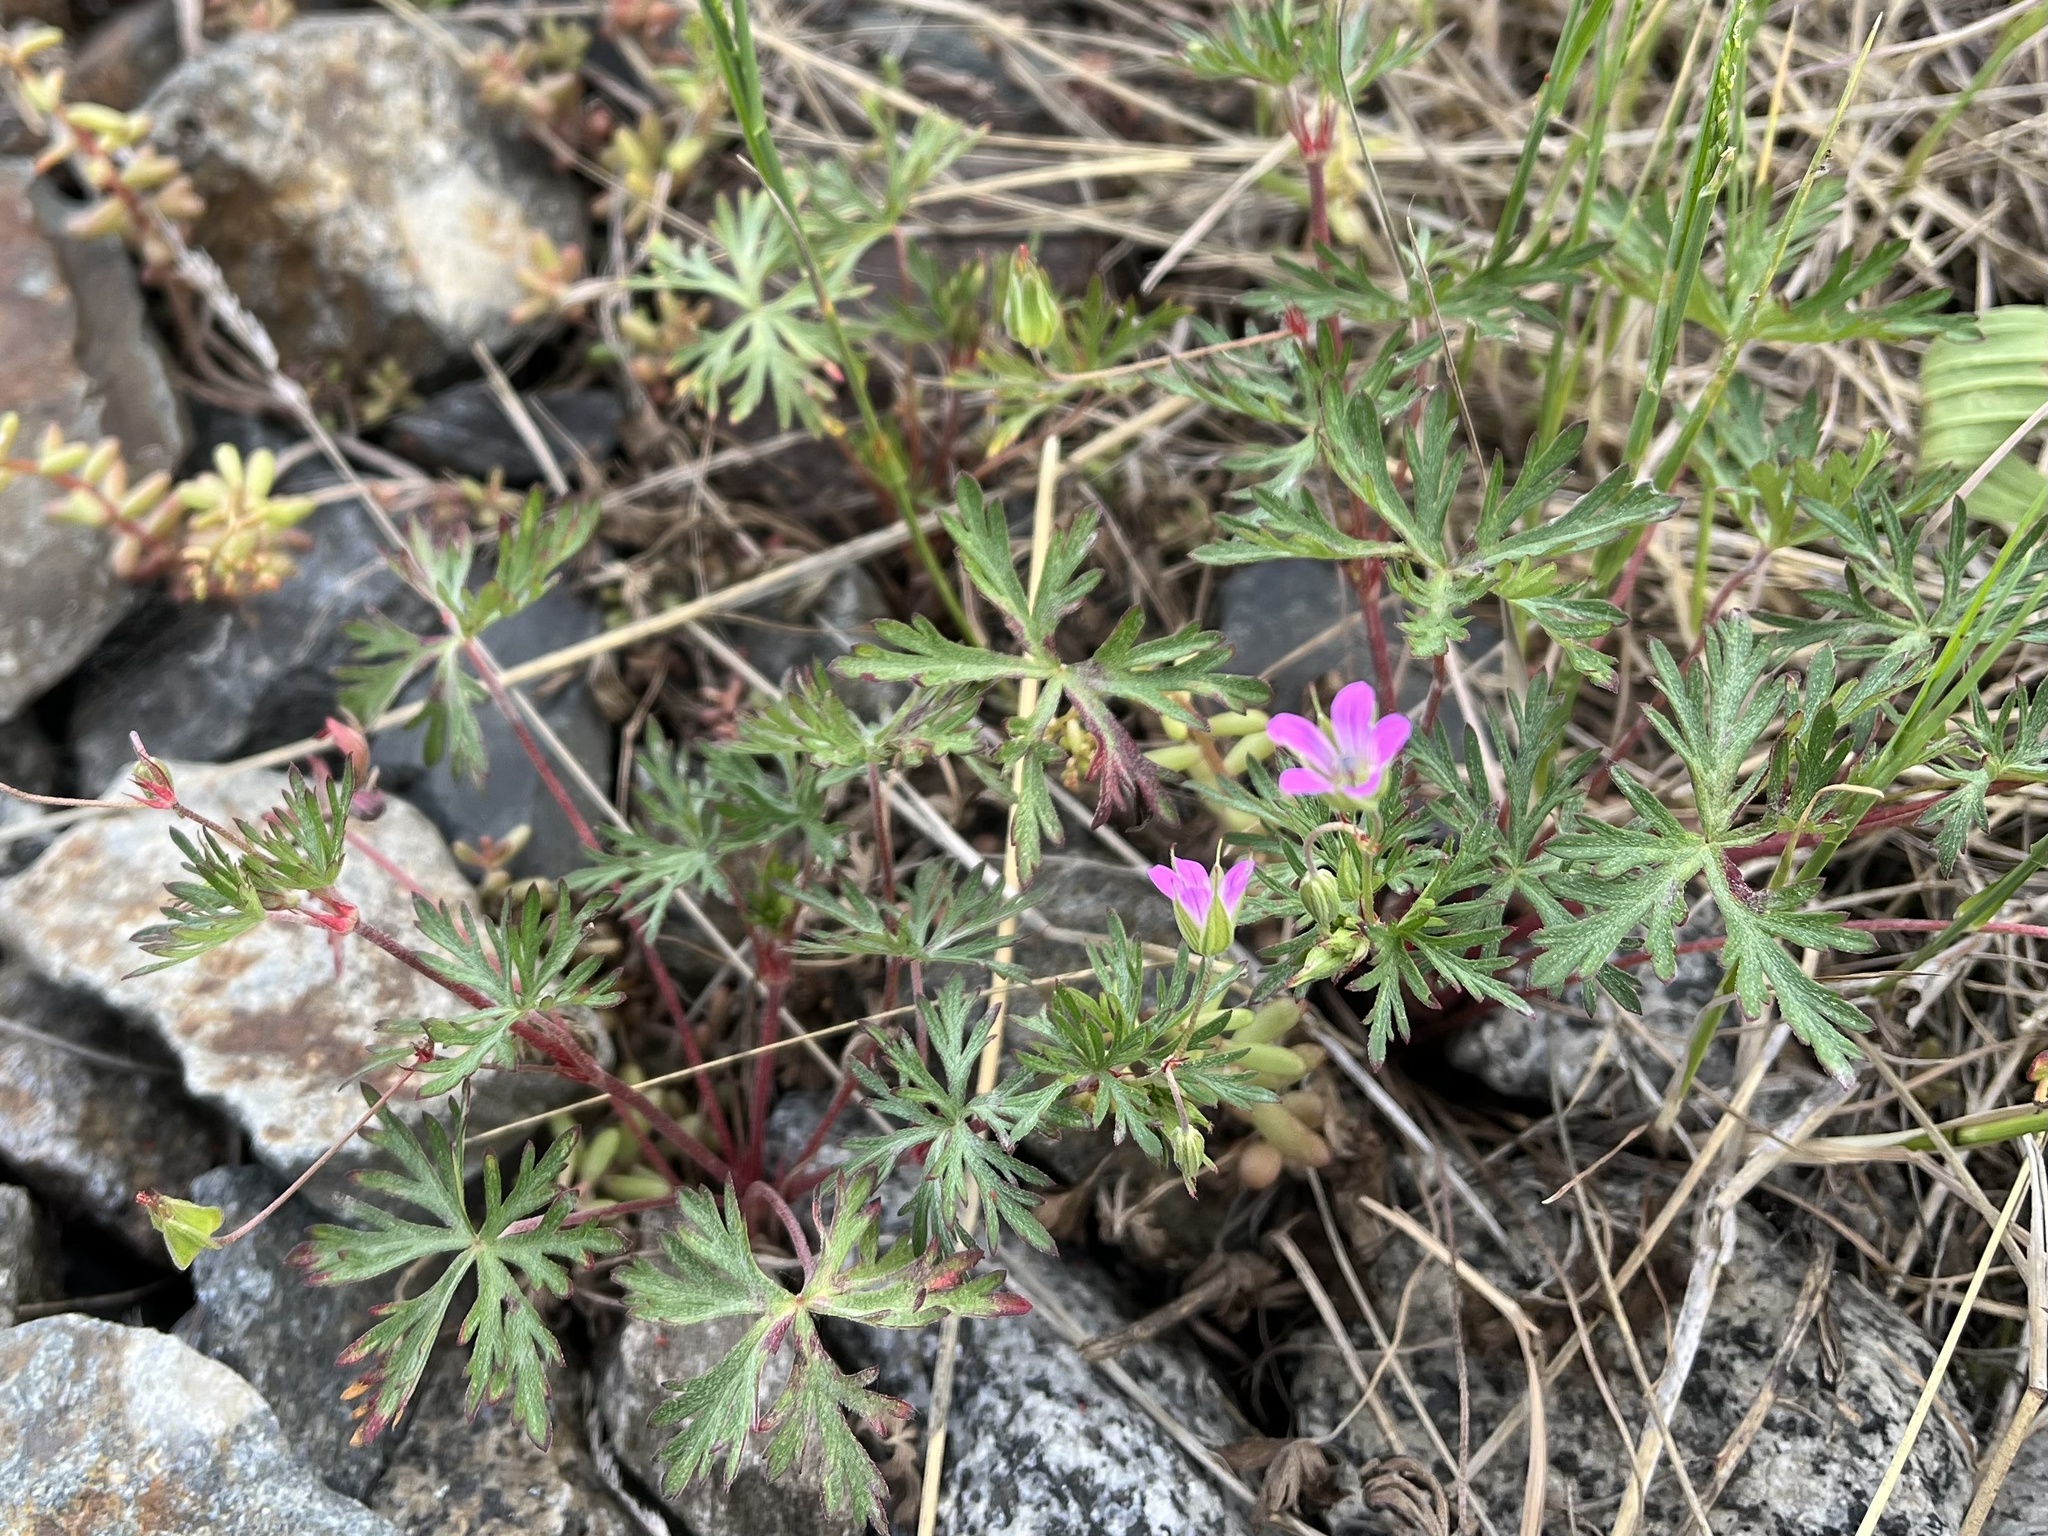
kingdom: Plantae
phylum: Tracheophyta
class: Magnoliopsida
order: Geraniales
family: Geraniaceae
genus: Geranium
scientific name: Geranium columbinum
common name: Long-stalked crane's-bill
